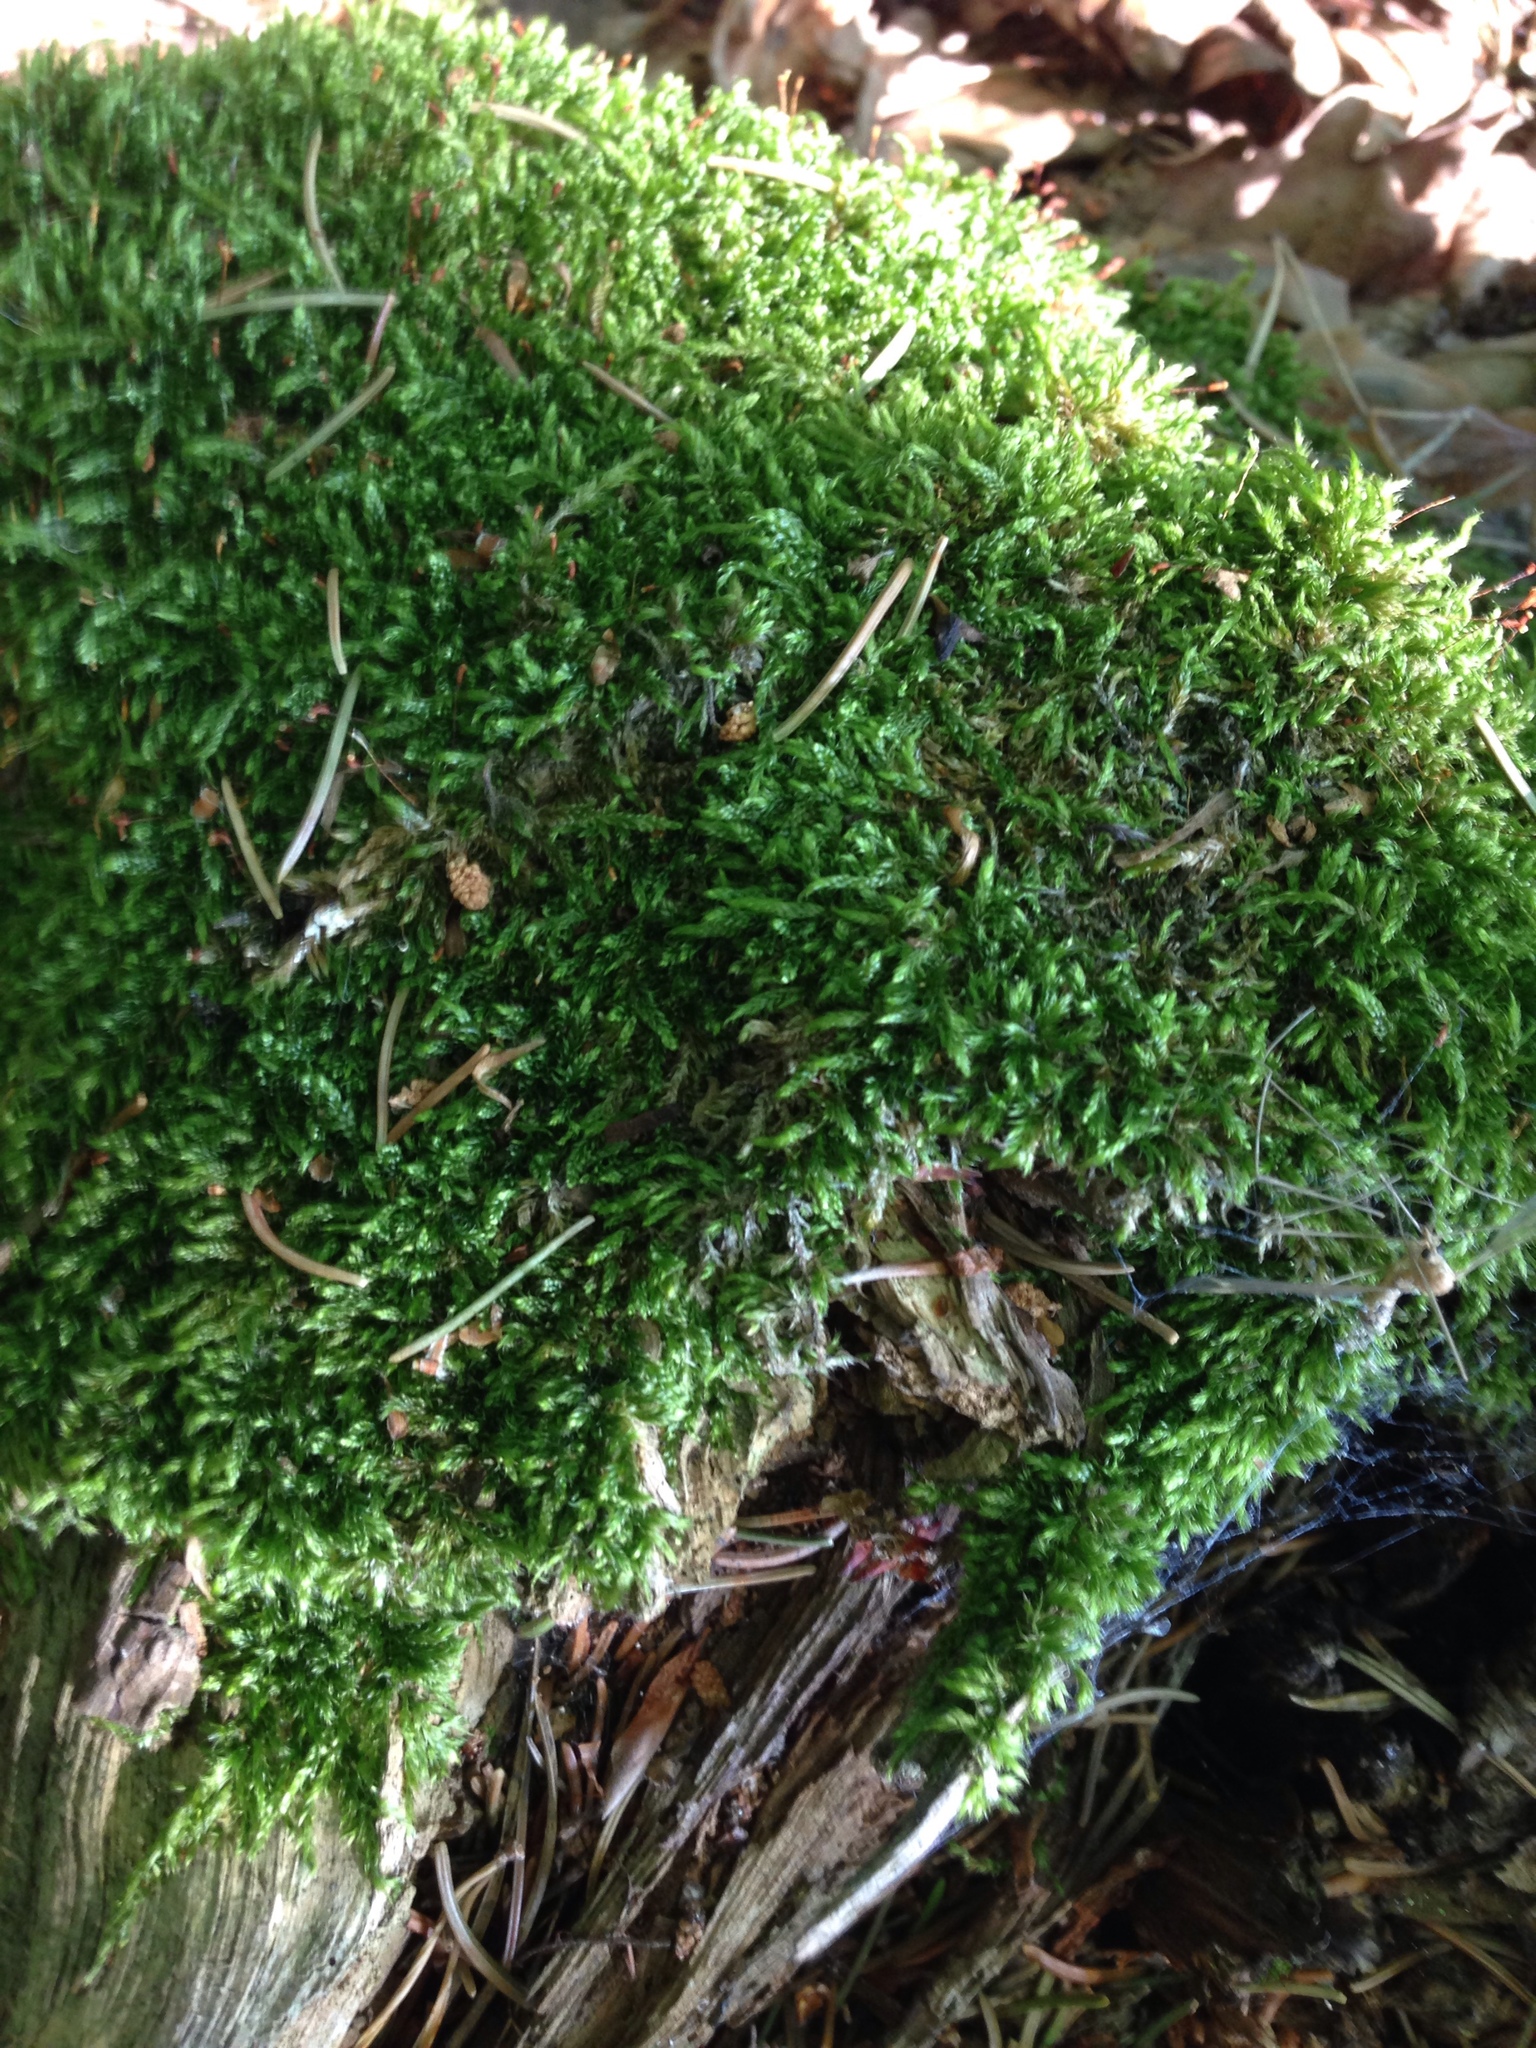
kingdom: Plantae
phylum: Bryophyta
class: Bryopsida
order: Hypnales
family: Hypnaceae
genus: Hypnum
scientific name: Hypnum cupressiforme
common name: Cypress-leaved plait-moss
